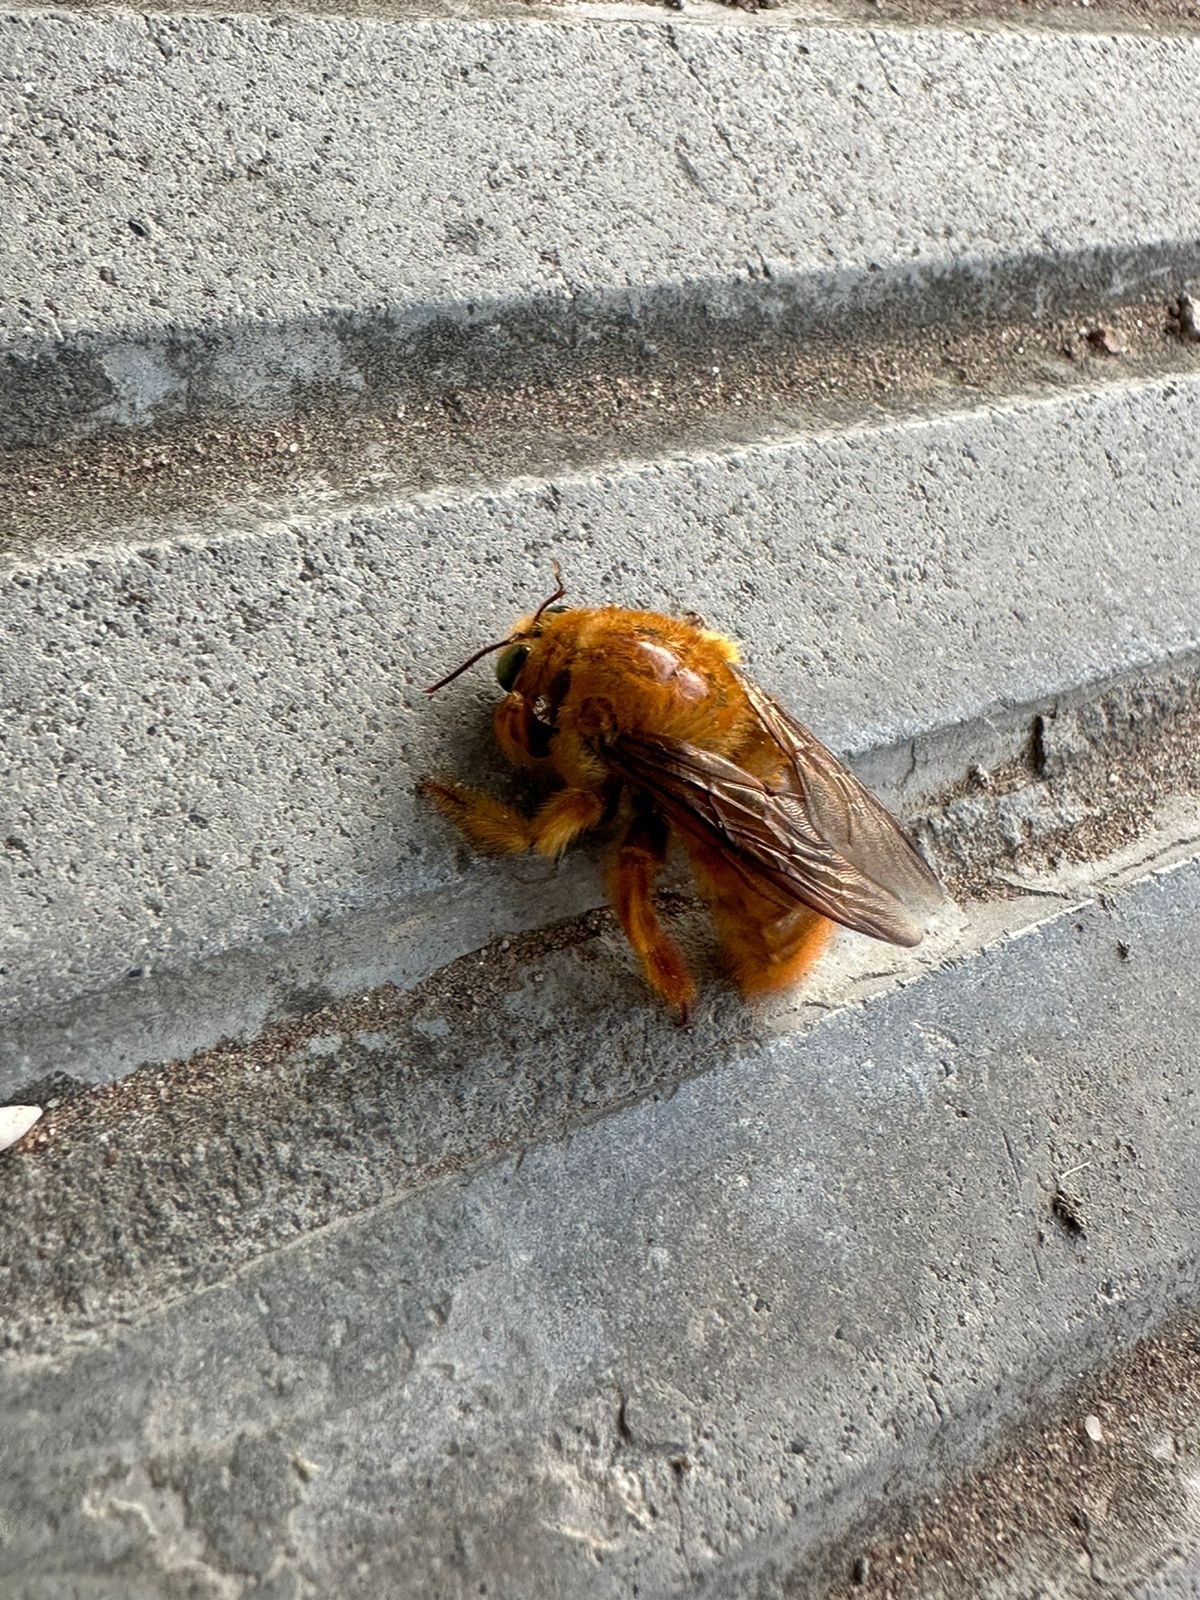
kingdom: Animalia
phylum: Arthropoda
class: Insecta
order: Hymenoptera
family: Apidae
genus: Xylocopa
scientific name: Xylocopa augusti
